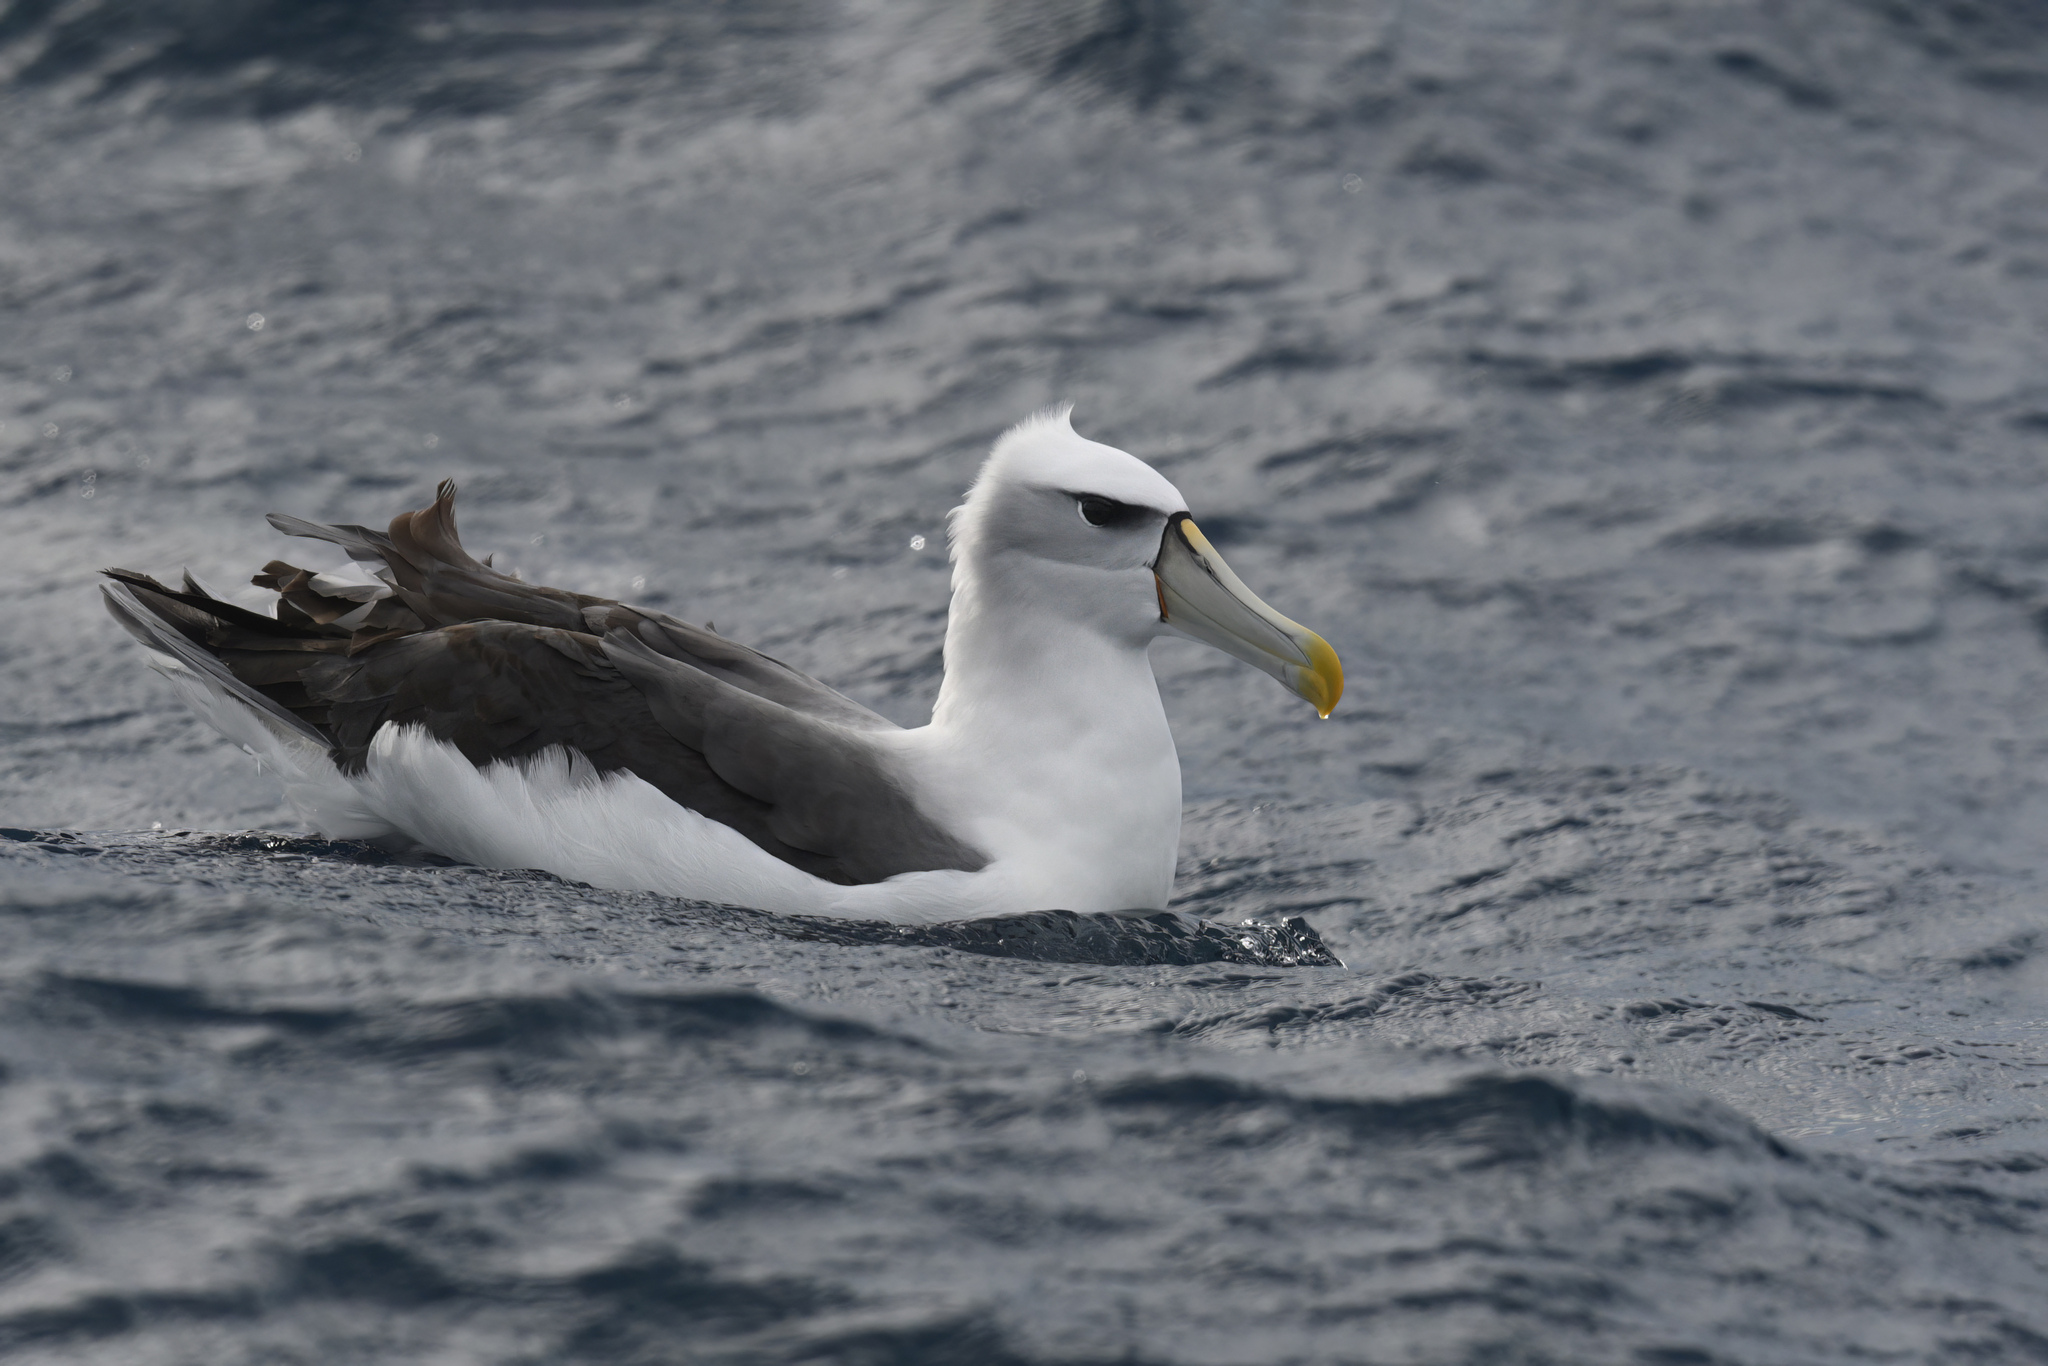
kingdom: Animalia
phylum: Chordata
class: Aves
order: Procellariiformes
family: Diomedeidae
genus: Thalassarche
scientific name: Thalassarche cauta
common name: Shy albatross
